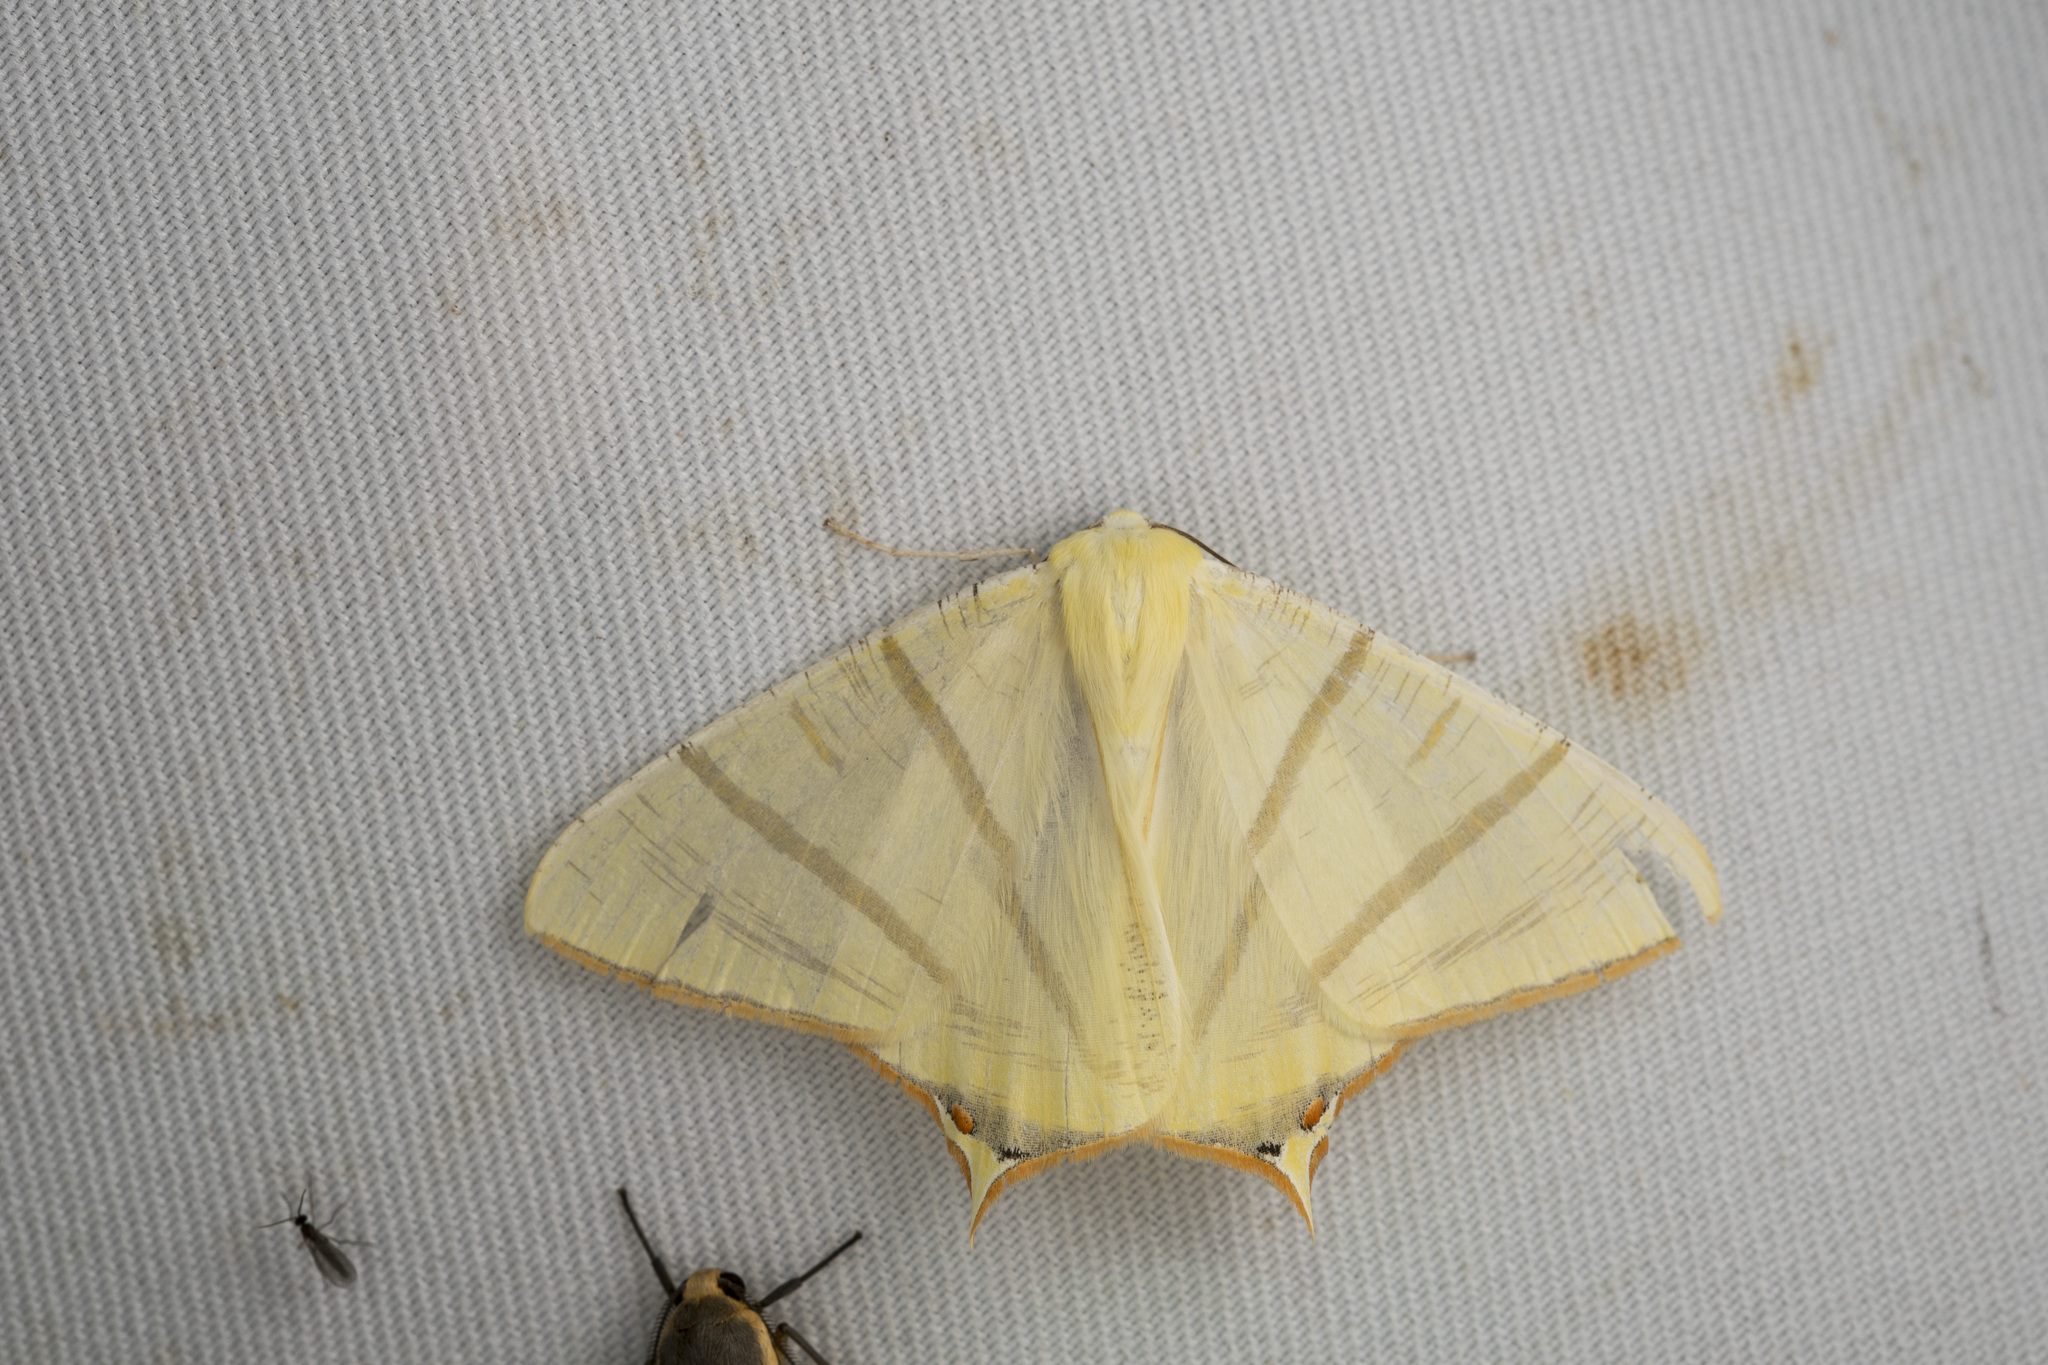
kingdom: Animalia
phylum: Arthropoda
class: Insecta
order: Lepidoptera
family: Geometridae
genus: Ourapteryx
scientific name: Ourapteryx sciticaudaria
